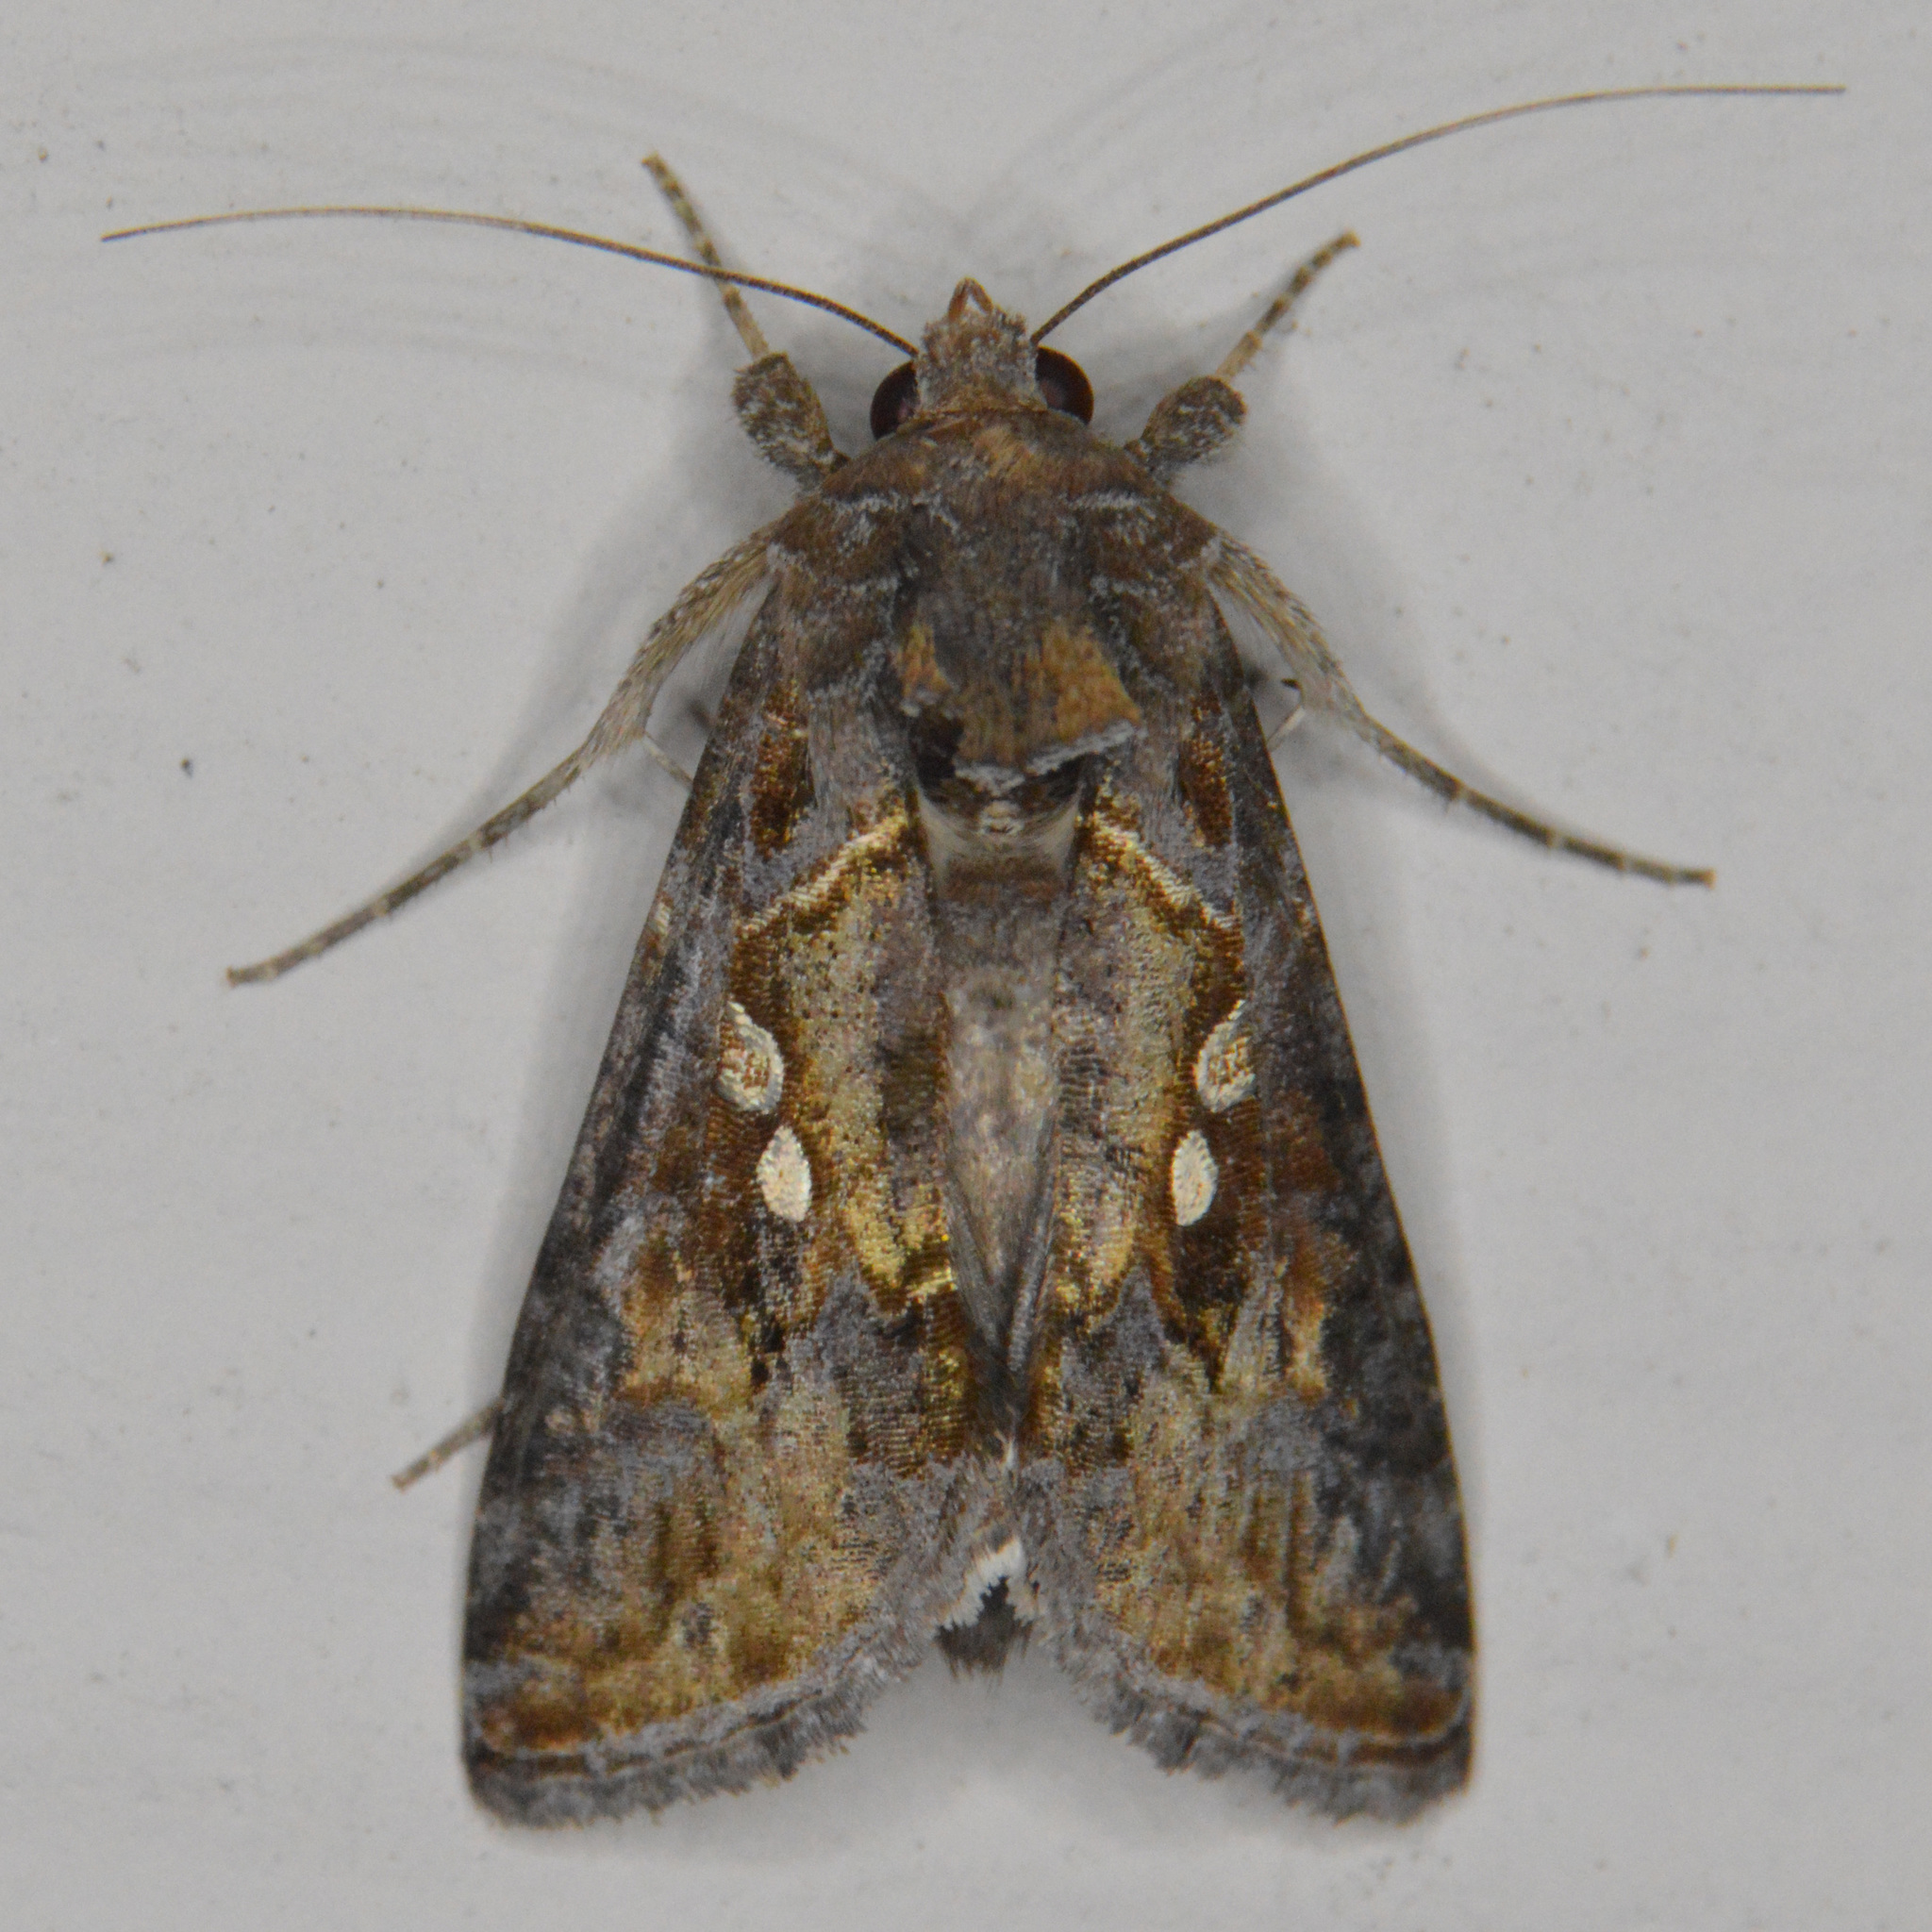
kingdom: Animalia
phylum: Arthropoda
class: Insecta
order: Lepidoptera
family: Noctuidae
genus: Chrysodeixis
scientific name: Chrysodeixis includens
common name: Cutworm moth
